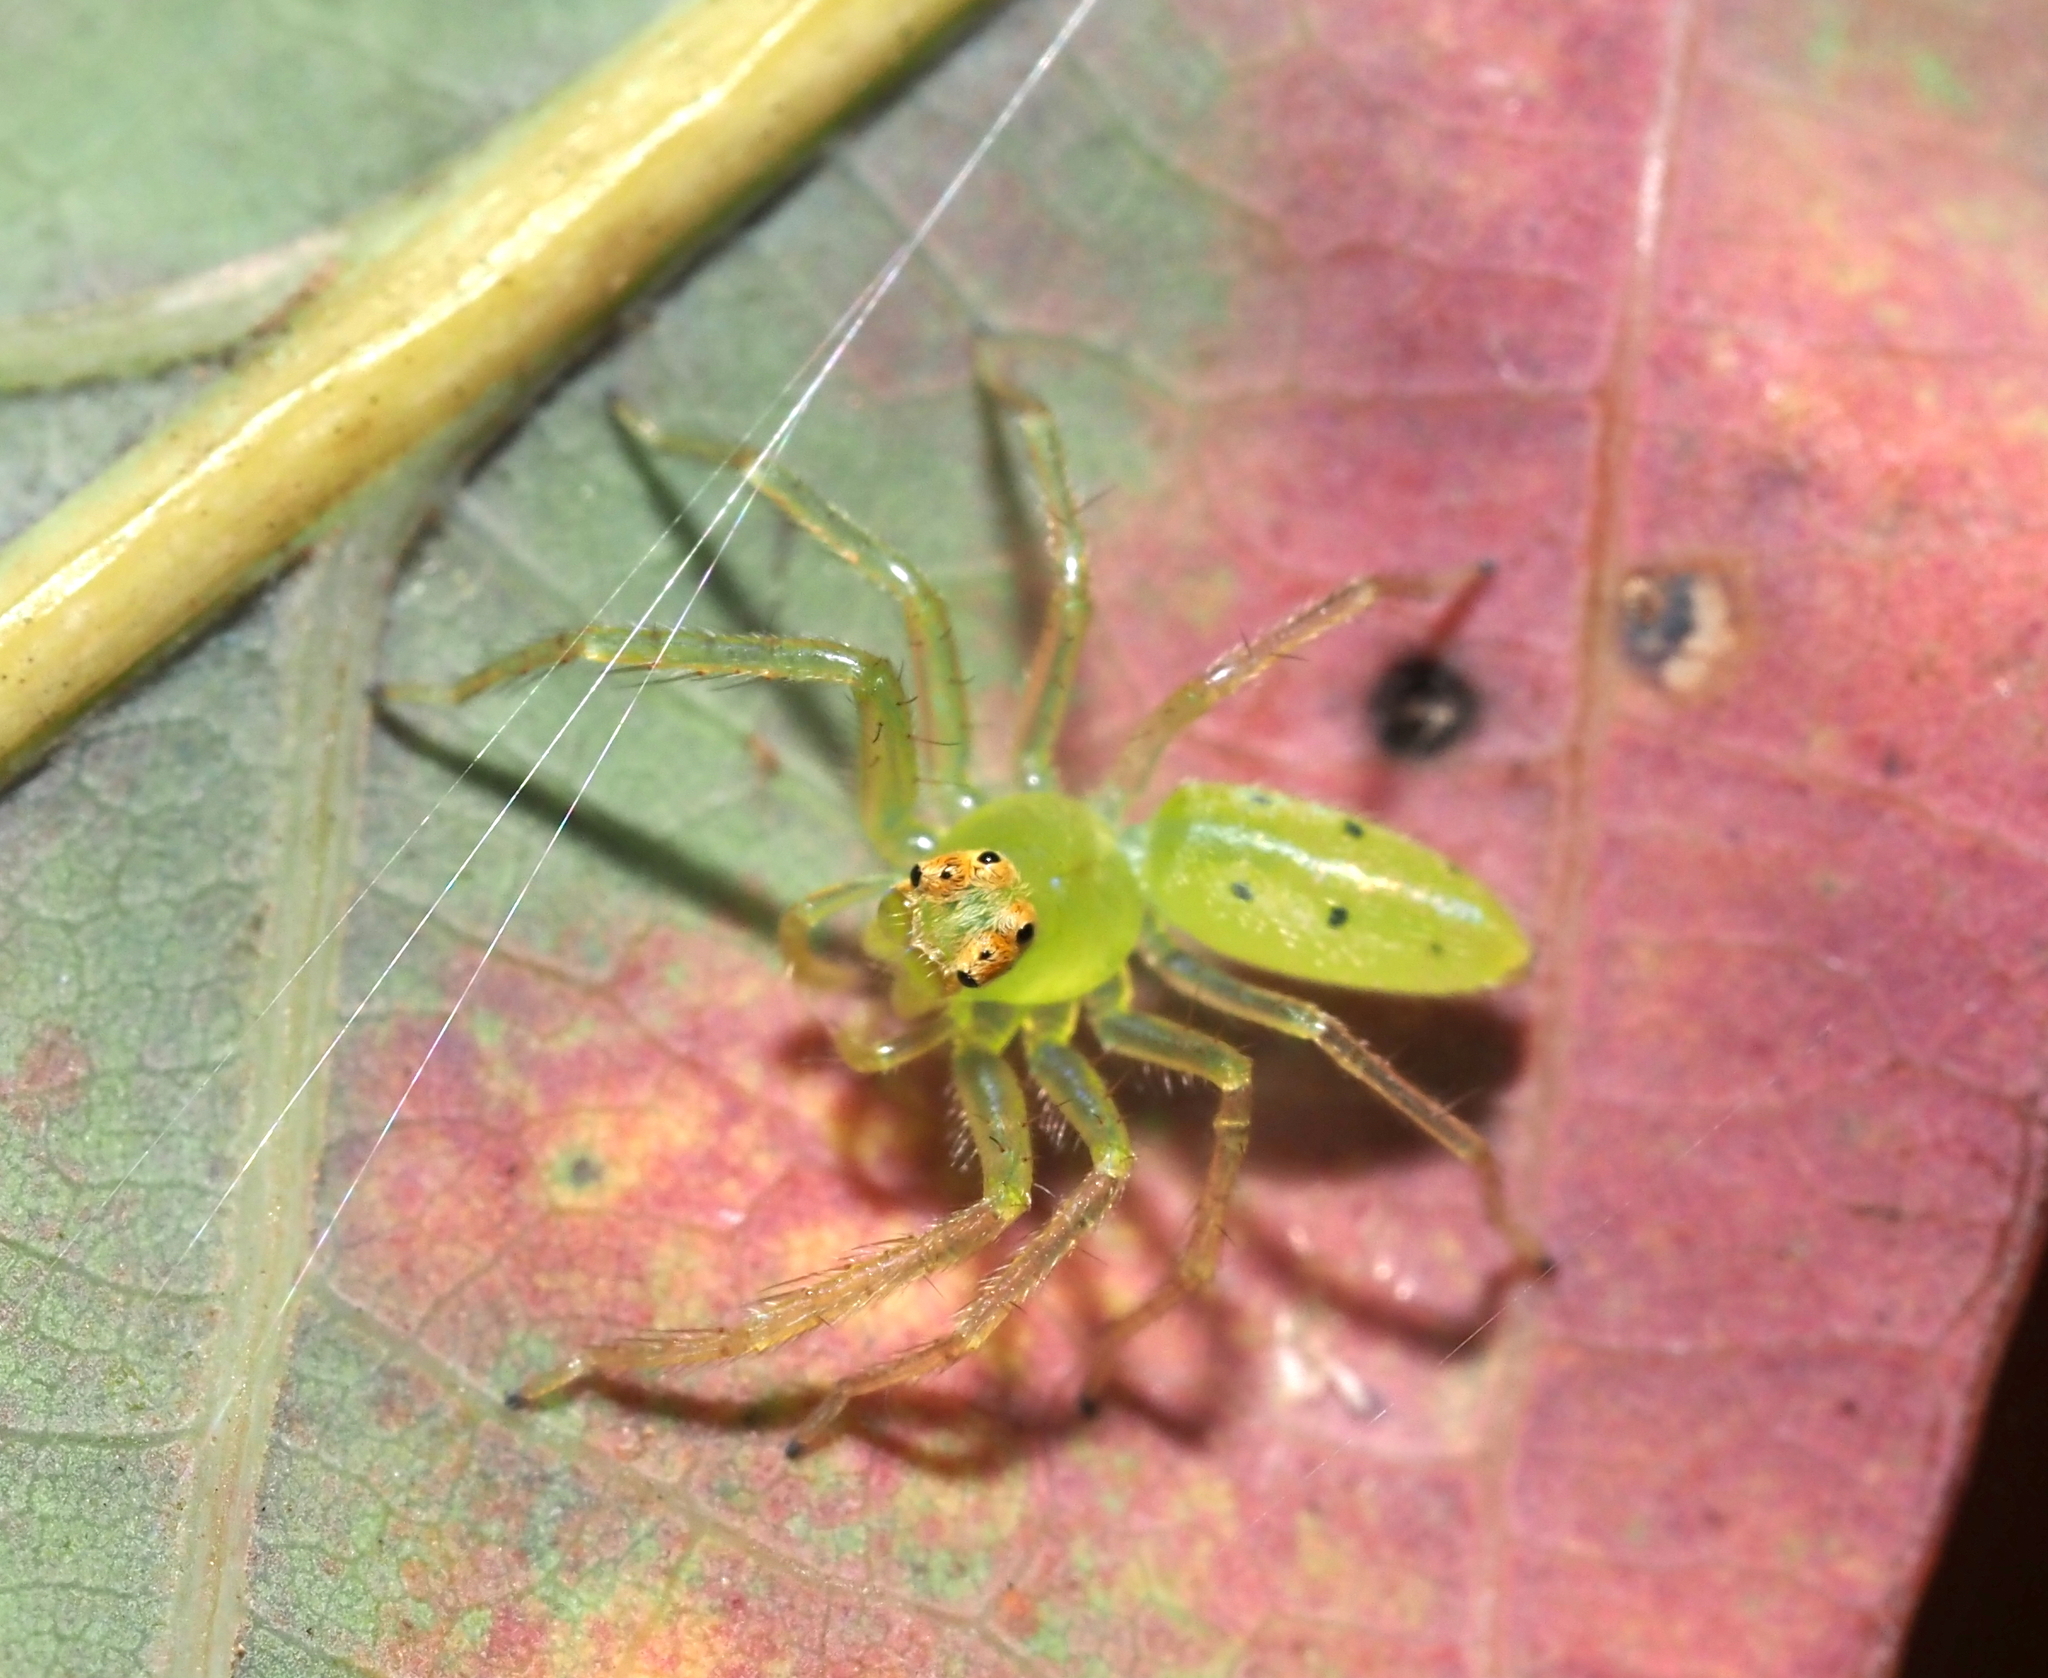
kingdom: Animalia
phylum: Arthropoda
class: Arachnida
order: Araneae
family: Salticidae
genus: Lyssomanes
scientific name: Lyssomanes viridis
